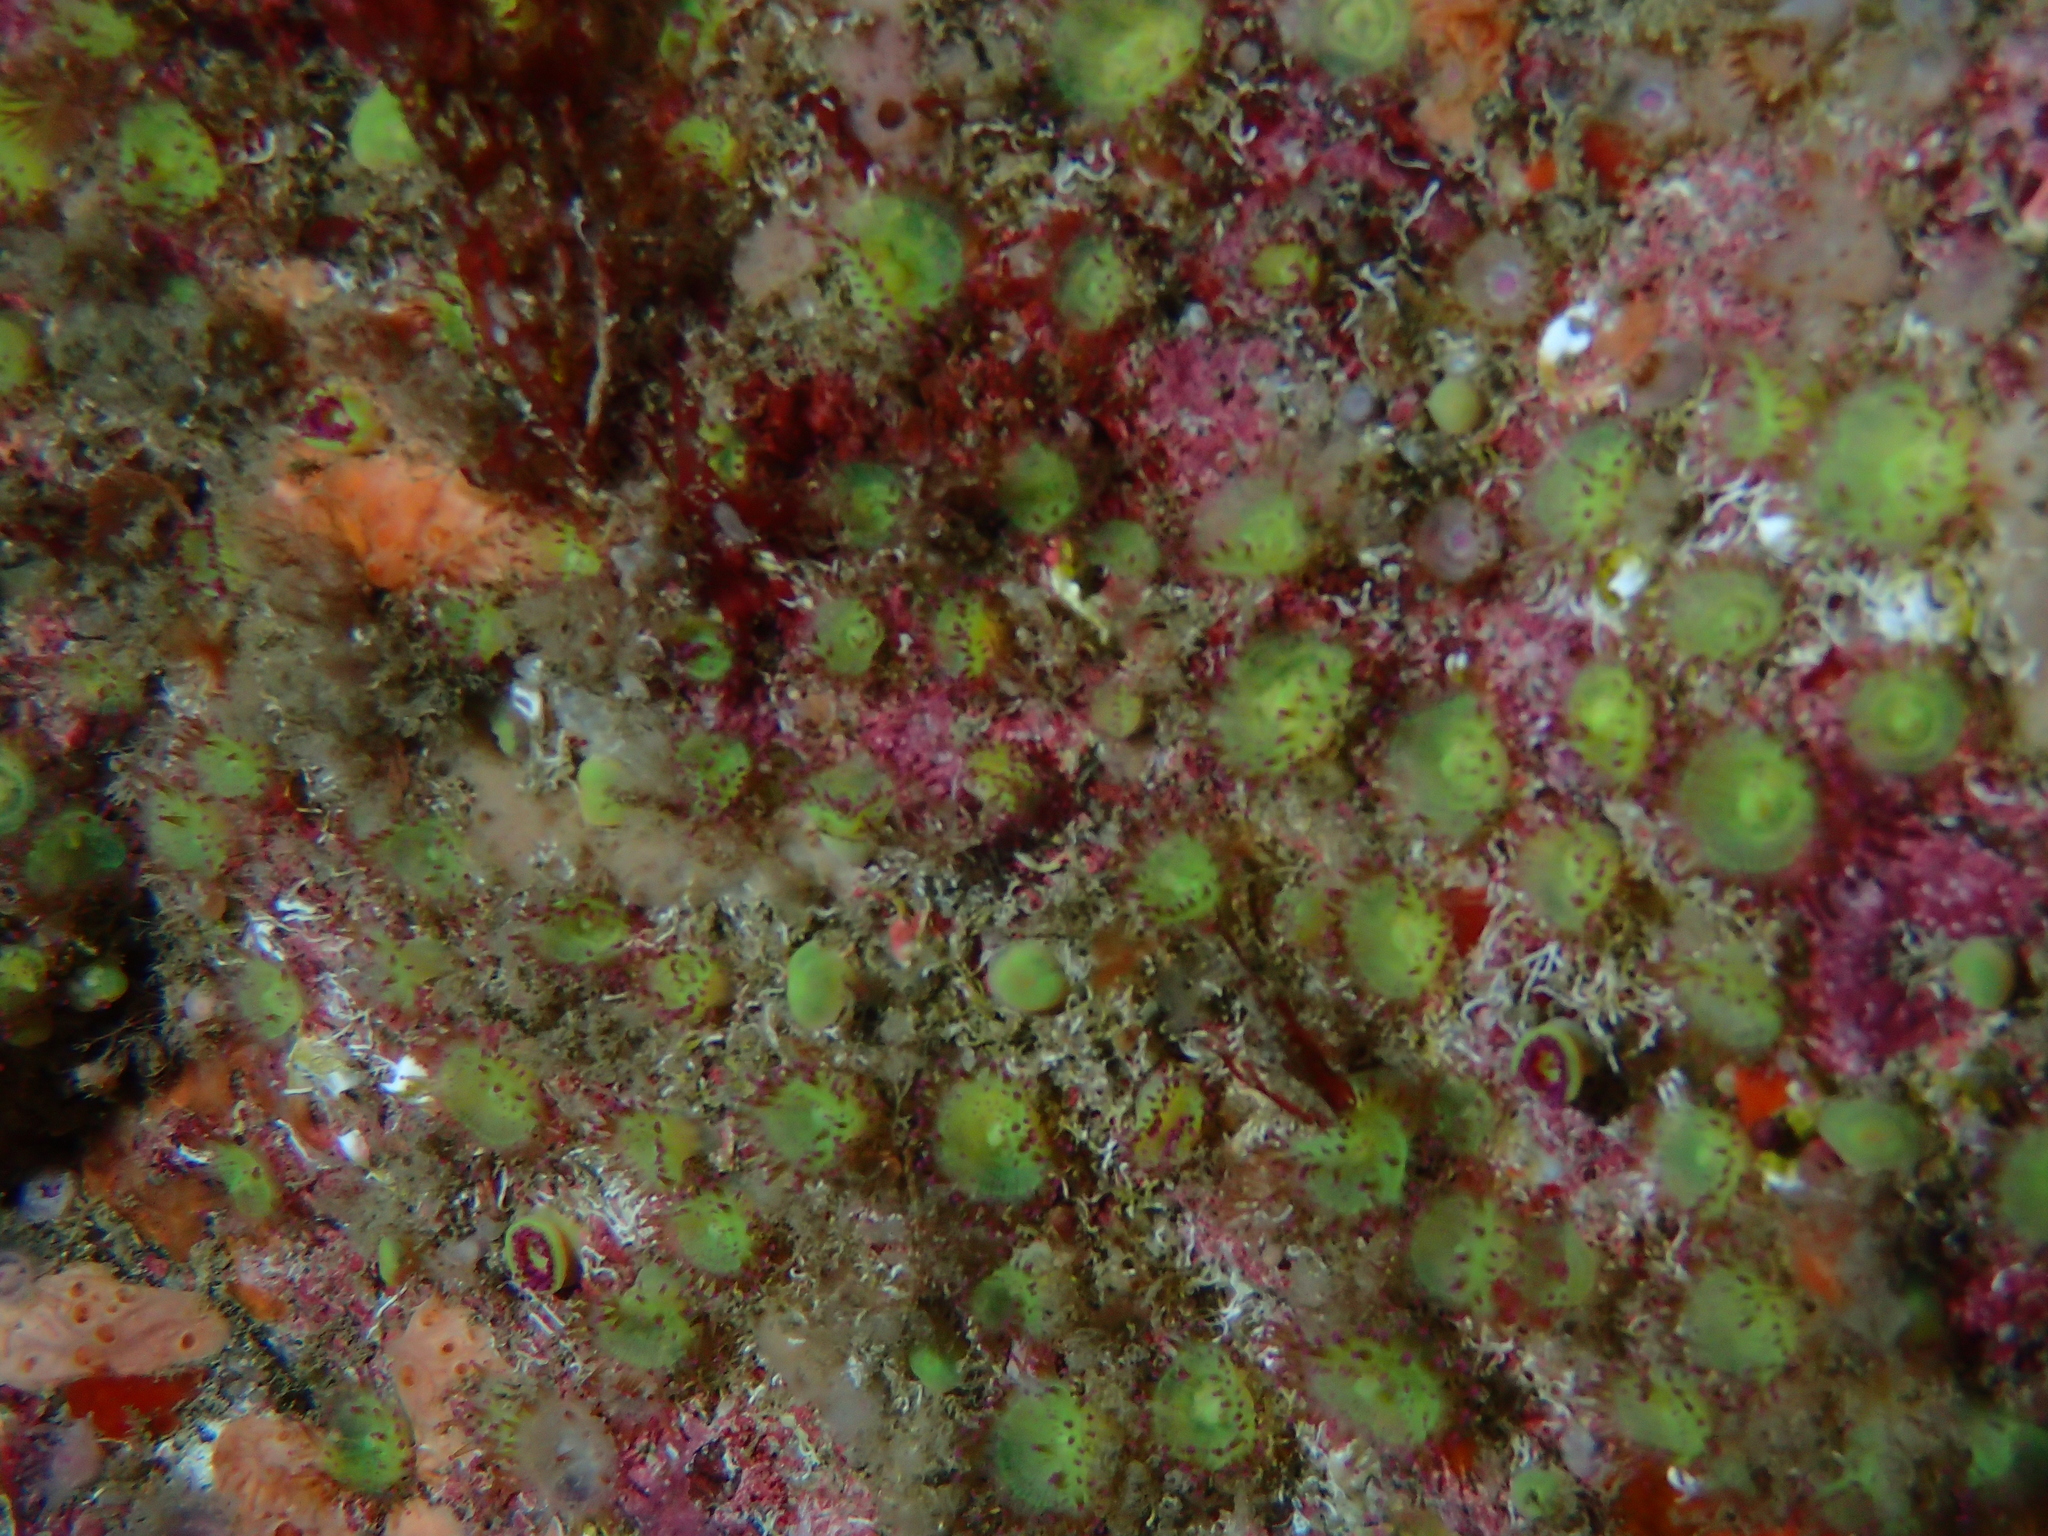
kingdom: Animalia
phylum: Cnidaria
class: Anthozoa
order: Corallimorpharia
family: Corallimorphidae
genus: Corynactis
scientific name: Corynactis viridis
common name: Jewel anemone
